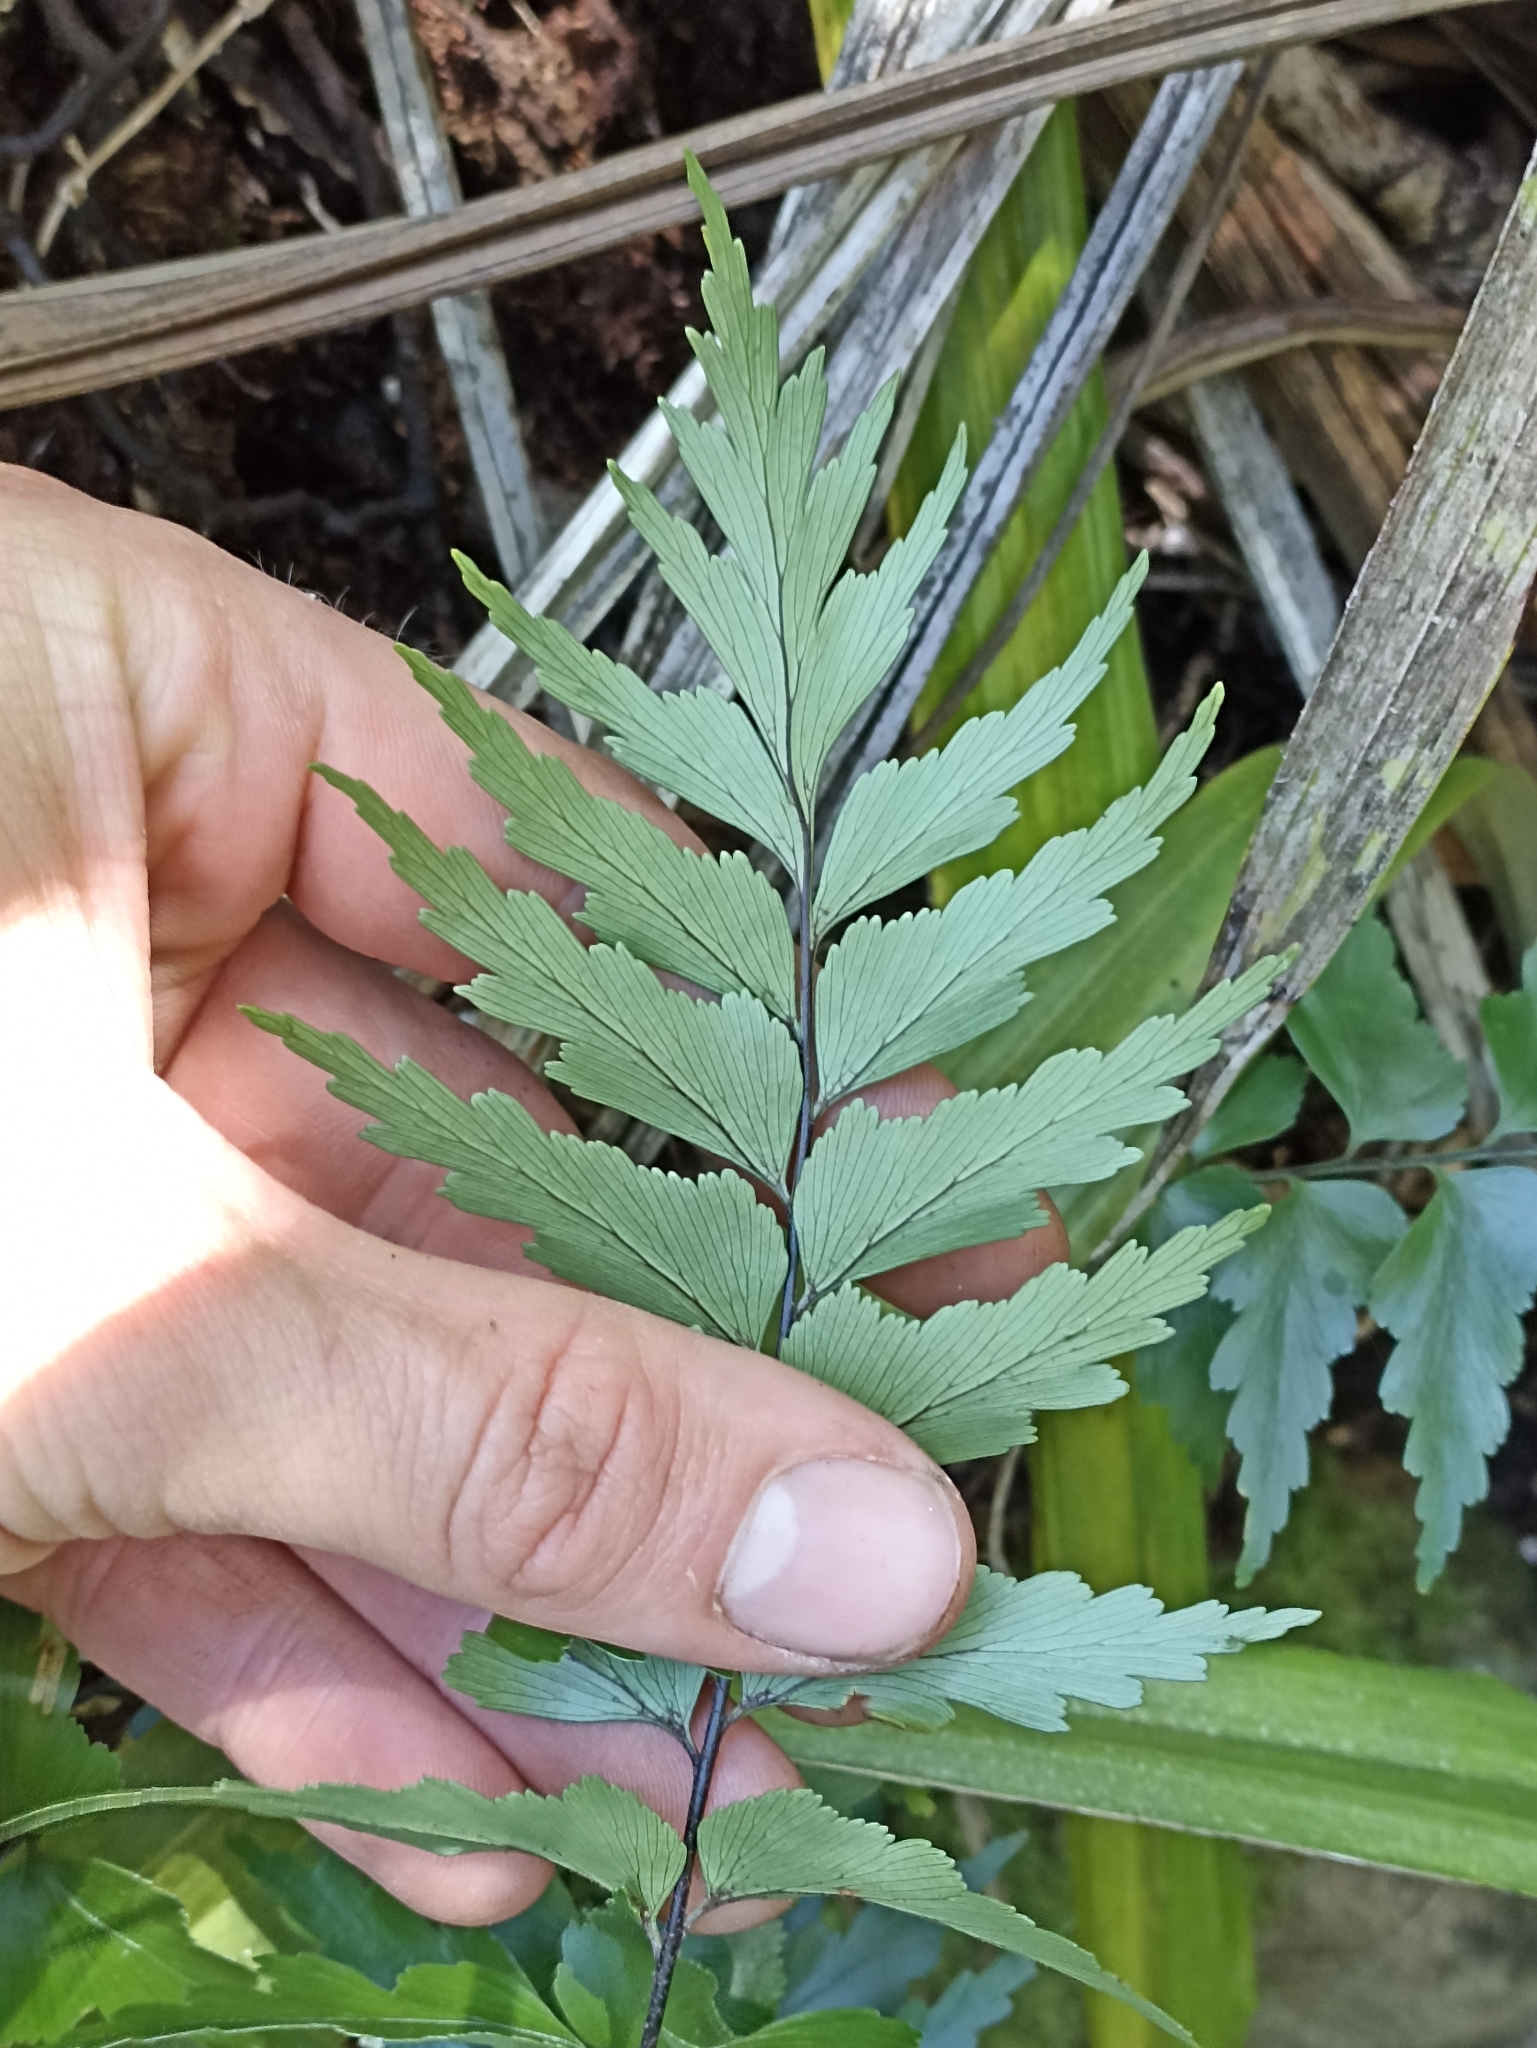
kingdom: Plantae
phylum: Tracheophyta
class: Polypodiopsida
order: Polypodiales
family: Aspleniaceae
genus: Asplenium
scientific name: Asplenium polyodon
